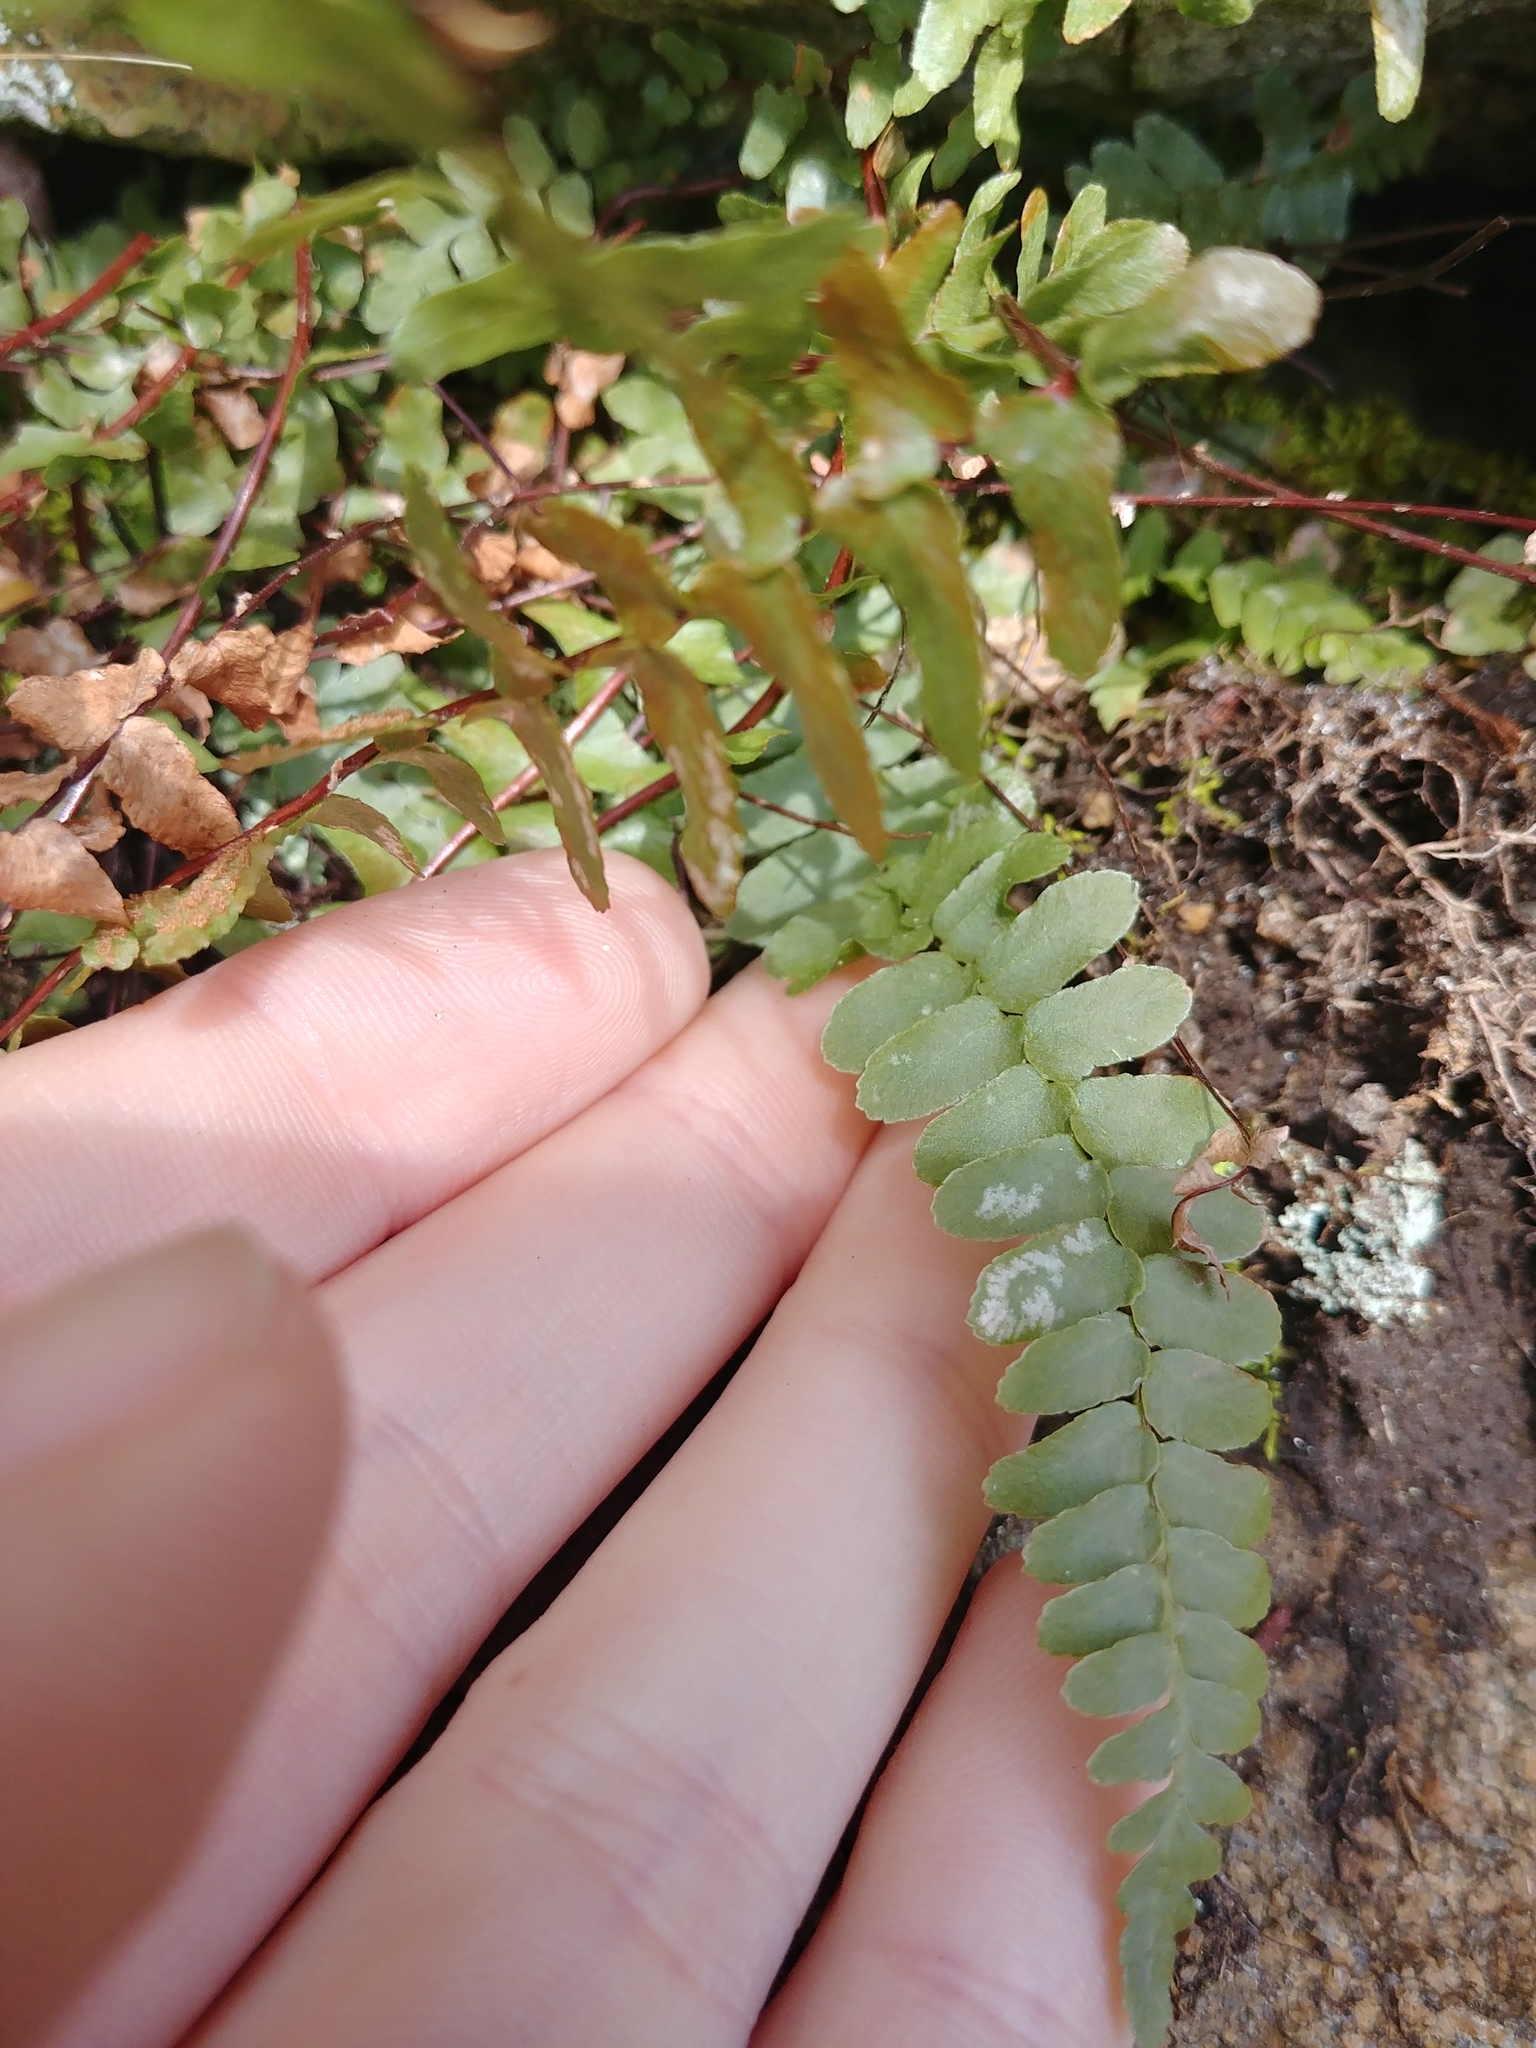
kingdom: Plantae
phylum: Tracheophyta
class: Polypodiopsida
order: Polypodiales
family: Aspleniaceae
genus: Asplenium
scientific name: Asplenium platyneuron
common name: Ebony spleenwort
